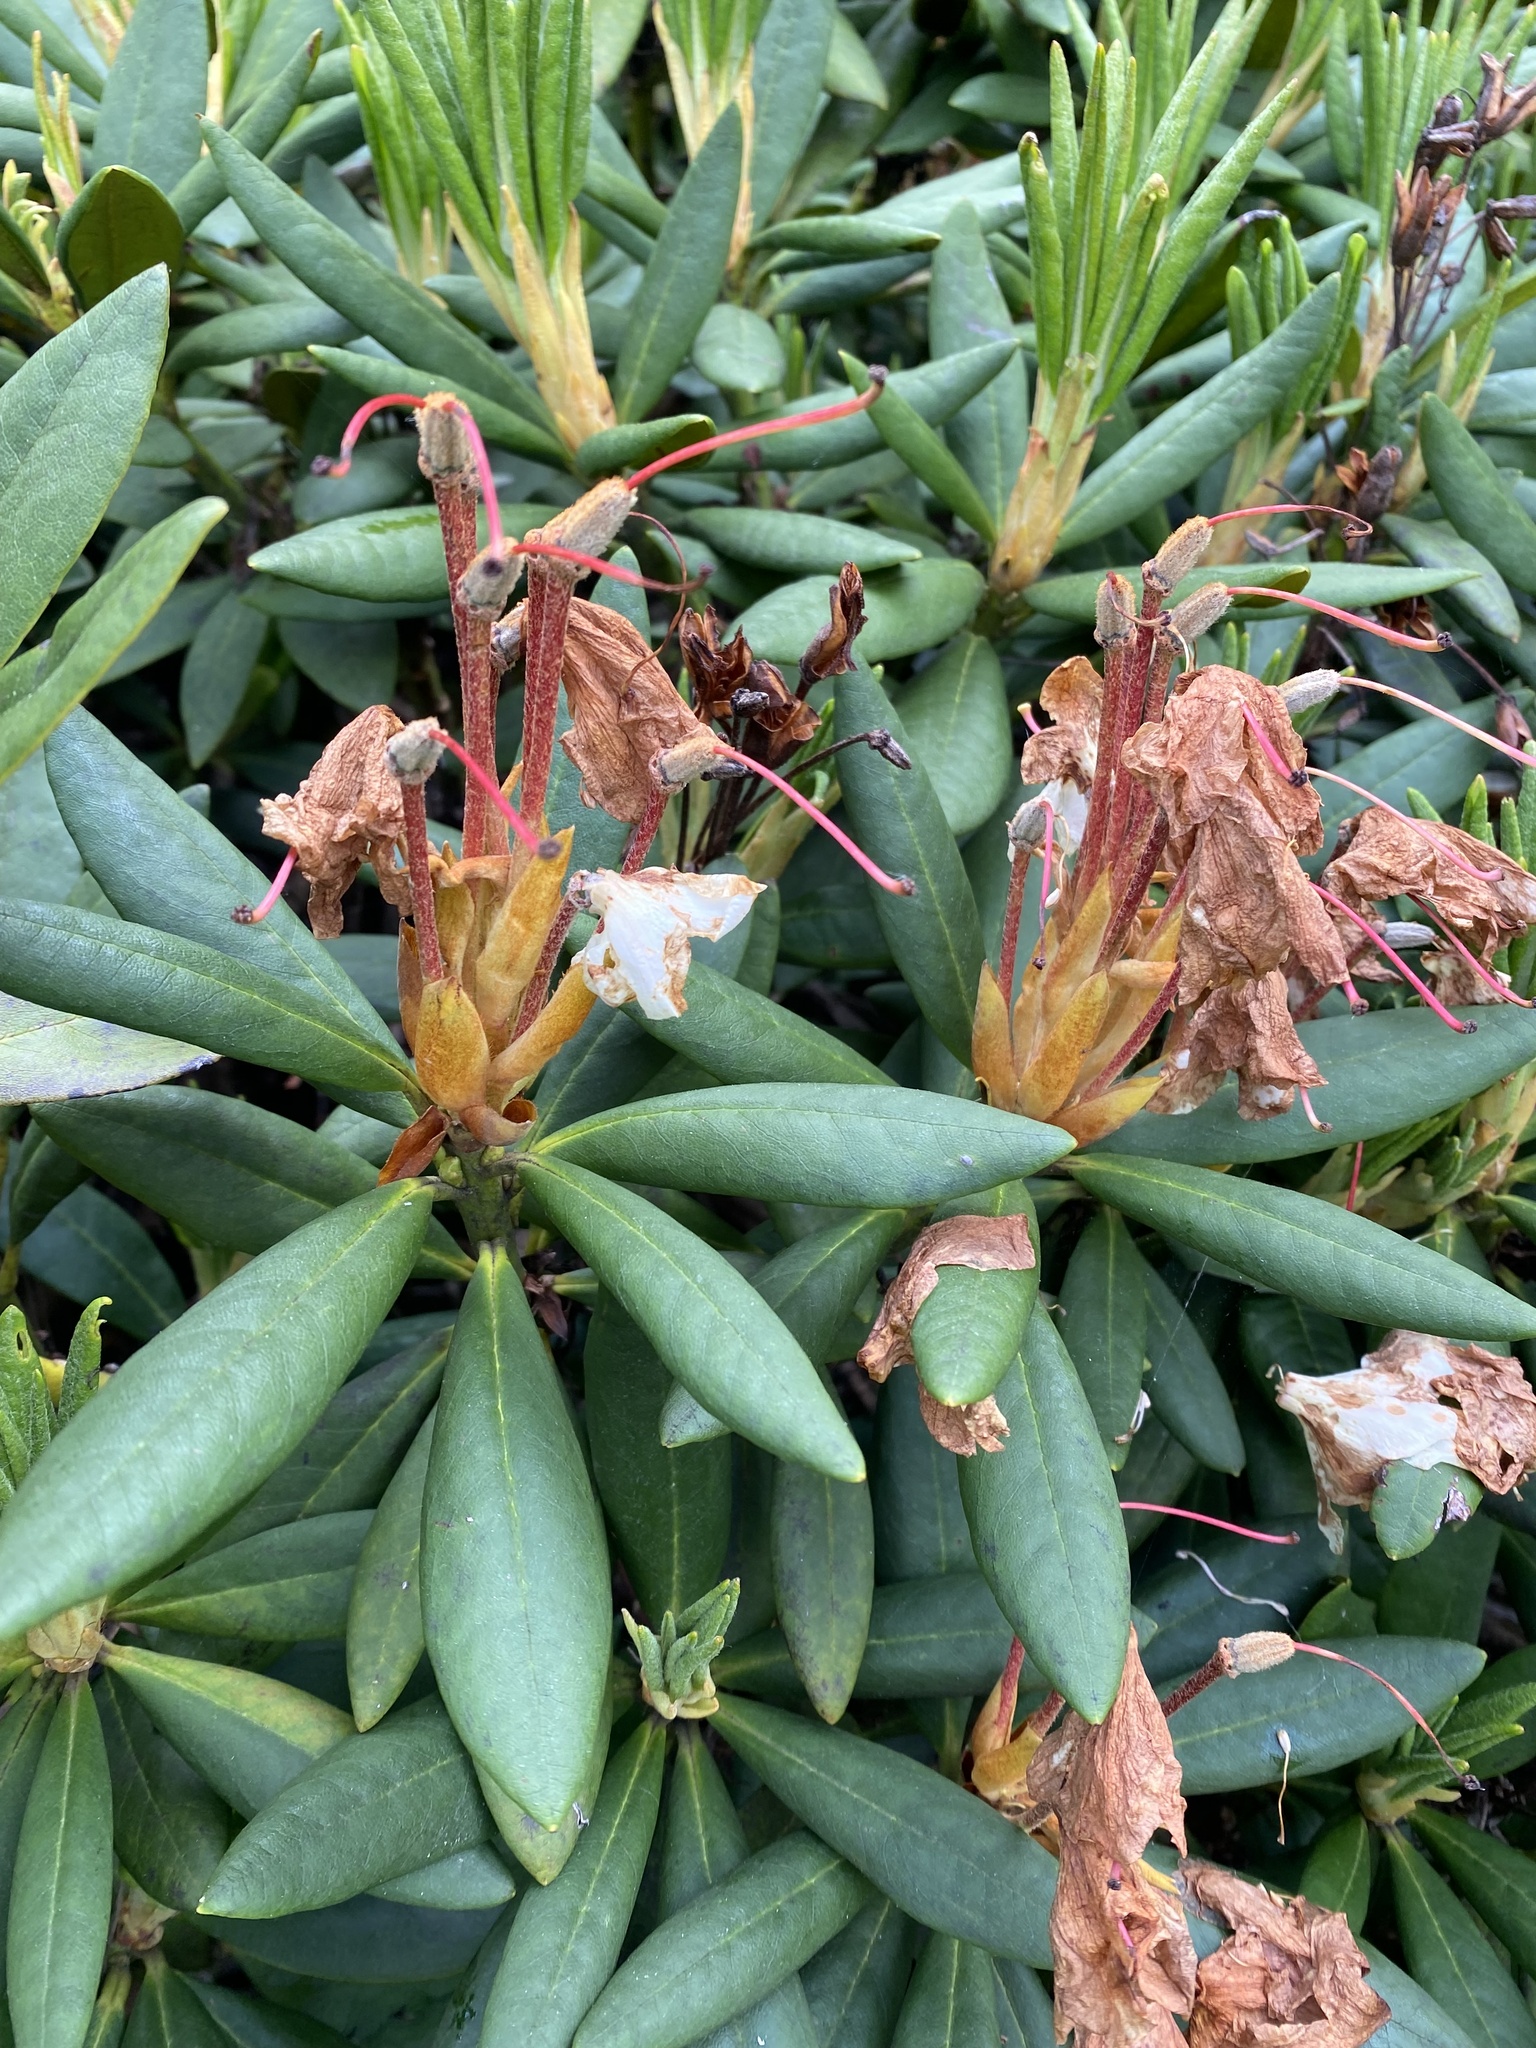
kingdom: Plantae
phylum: Tracheophyta
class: Magnoliopsida
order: Ericales
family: Ericaceae
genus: Rhododendron
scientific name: Rhododendron caucasicum
